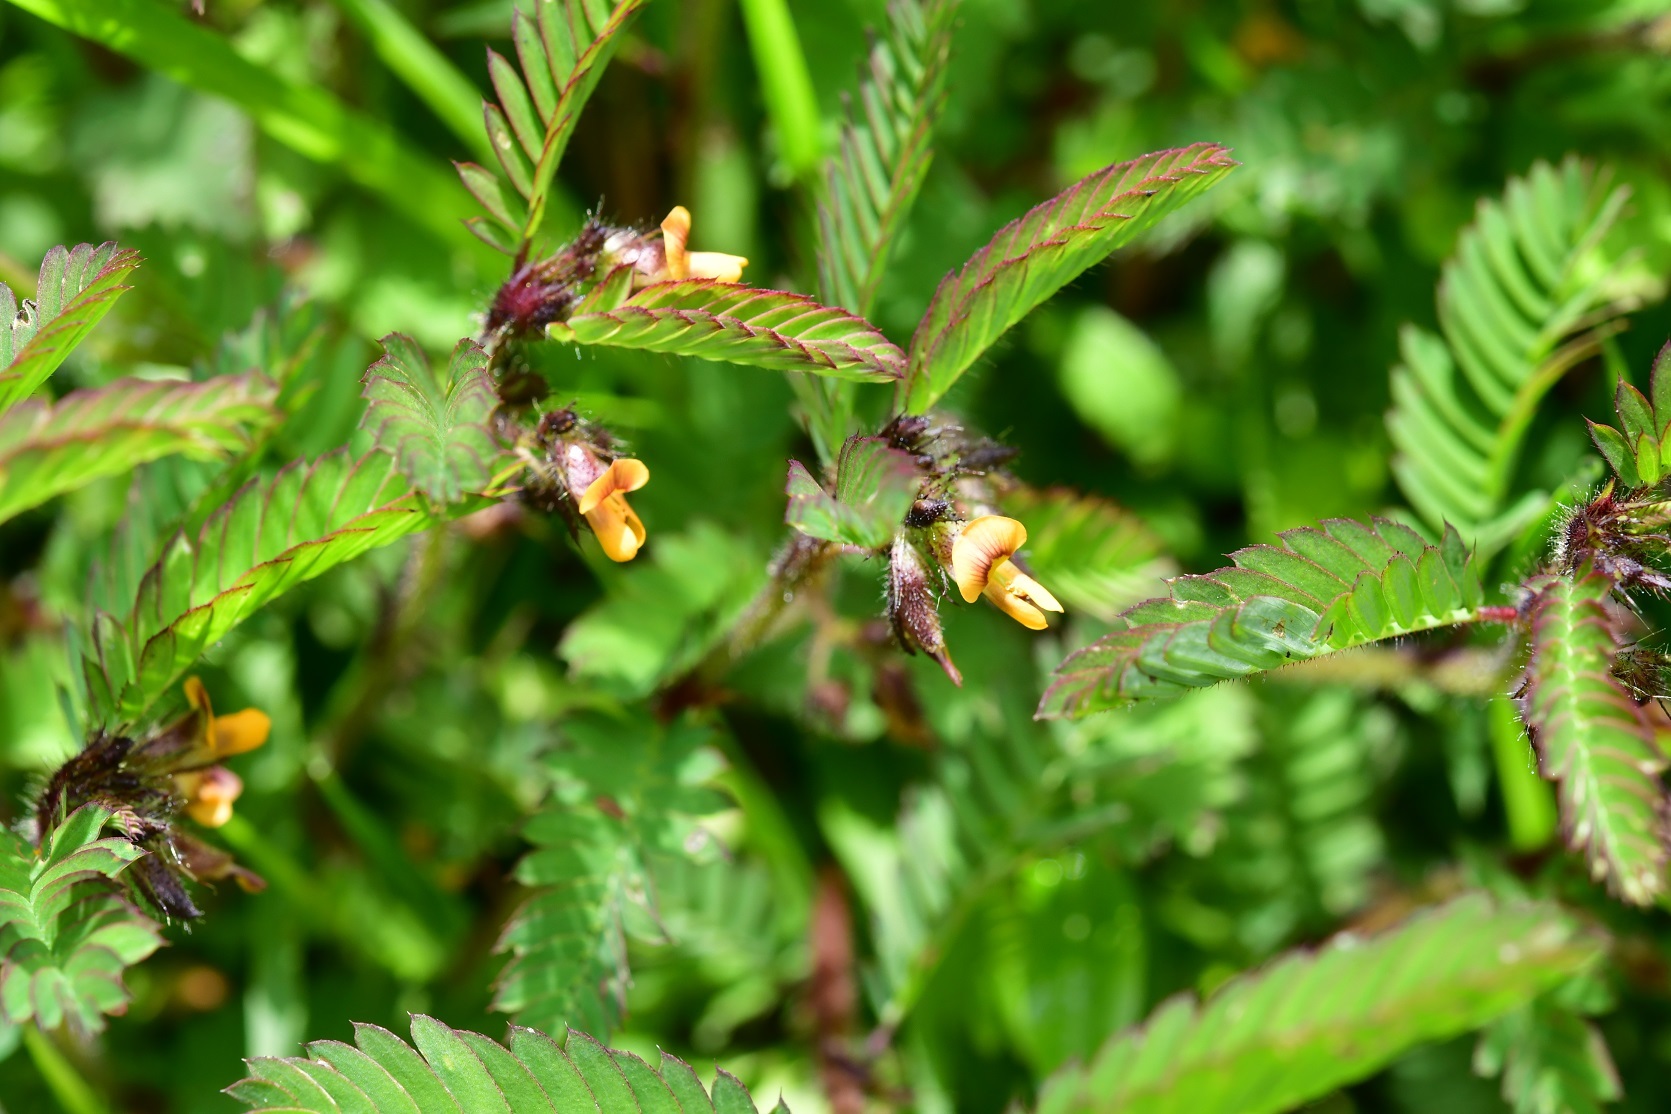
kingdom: Plantae
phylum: Tracheophyta
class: Magnoliopsida
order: Fabales
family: Fabaceae
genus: Aeschynomene
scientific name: Aeschynomene villosa
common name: Hairy-jointvetch
